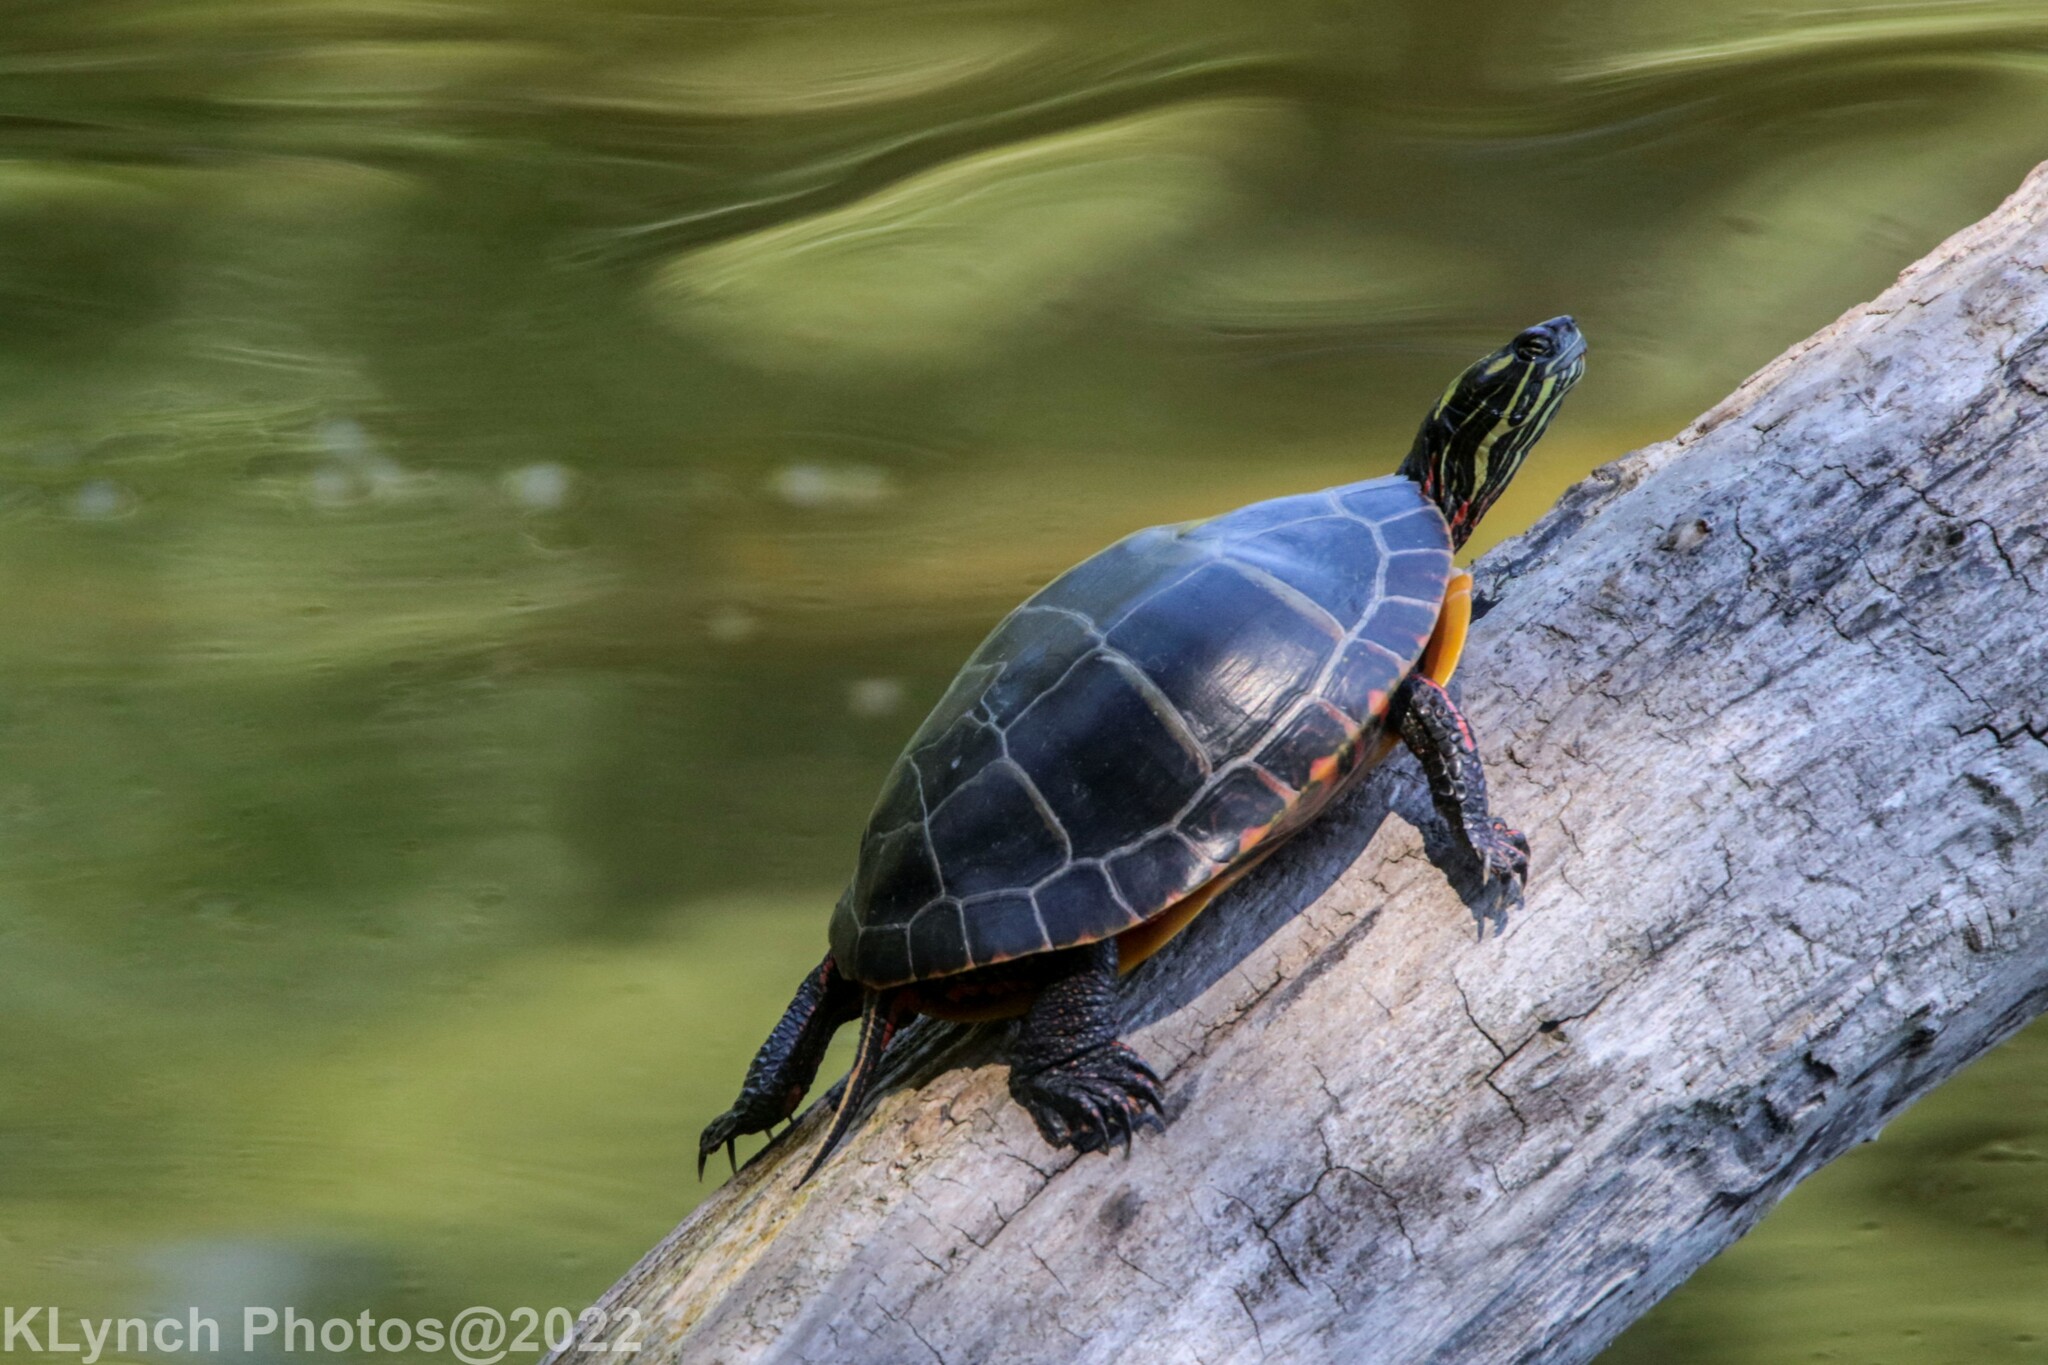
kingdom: Animalia
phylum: Chordata
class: Testudines
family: Emydidae
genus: Chrysemys
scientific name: Chrysemys picta
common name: Painted turtle
